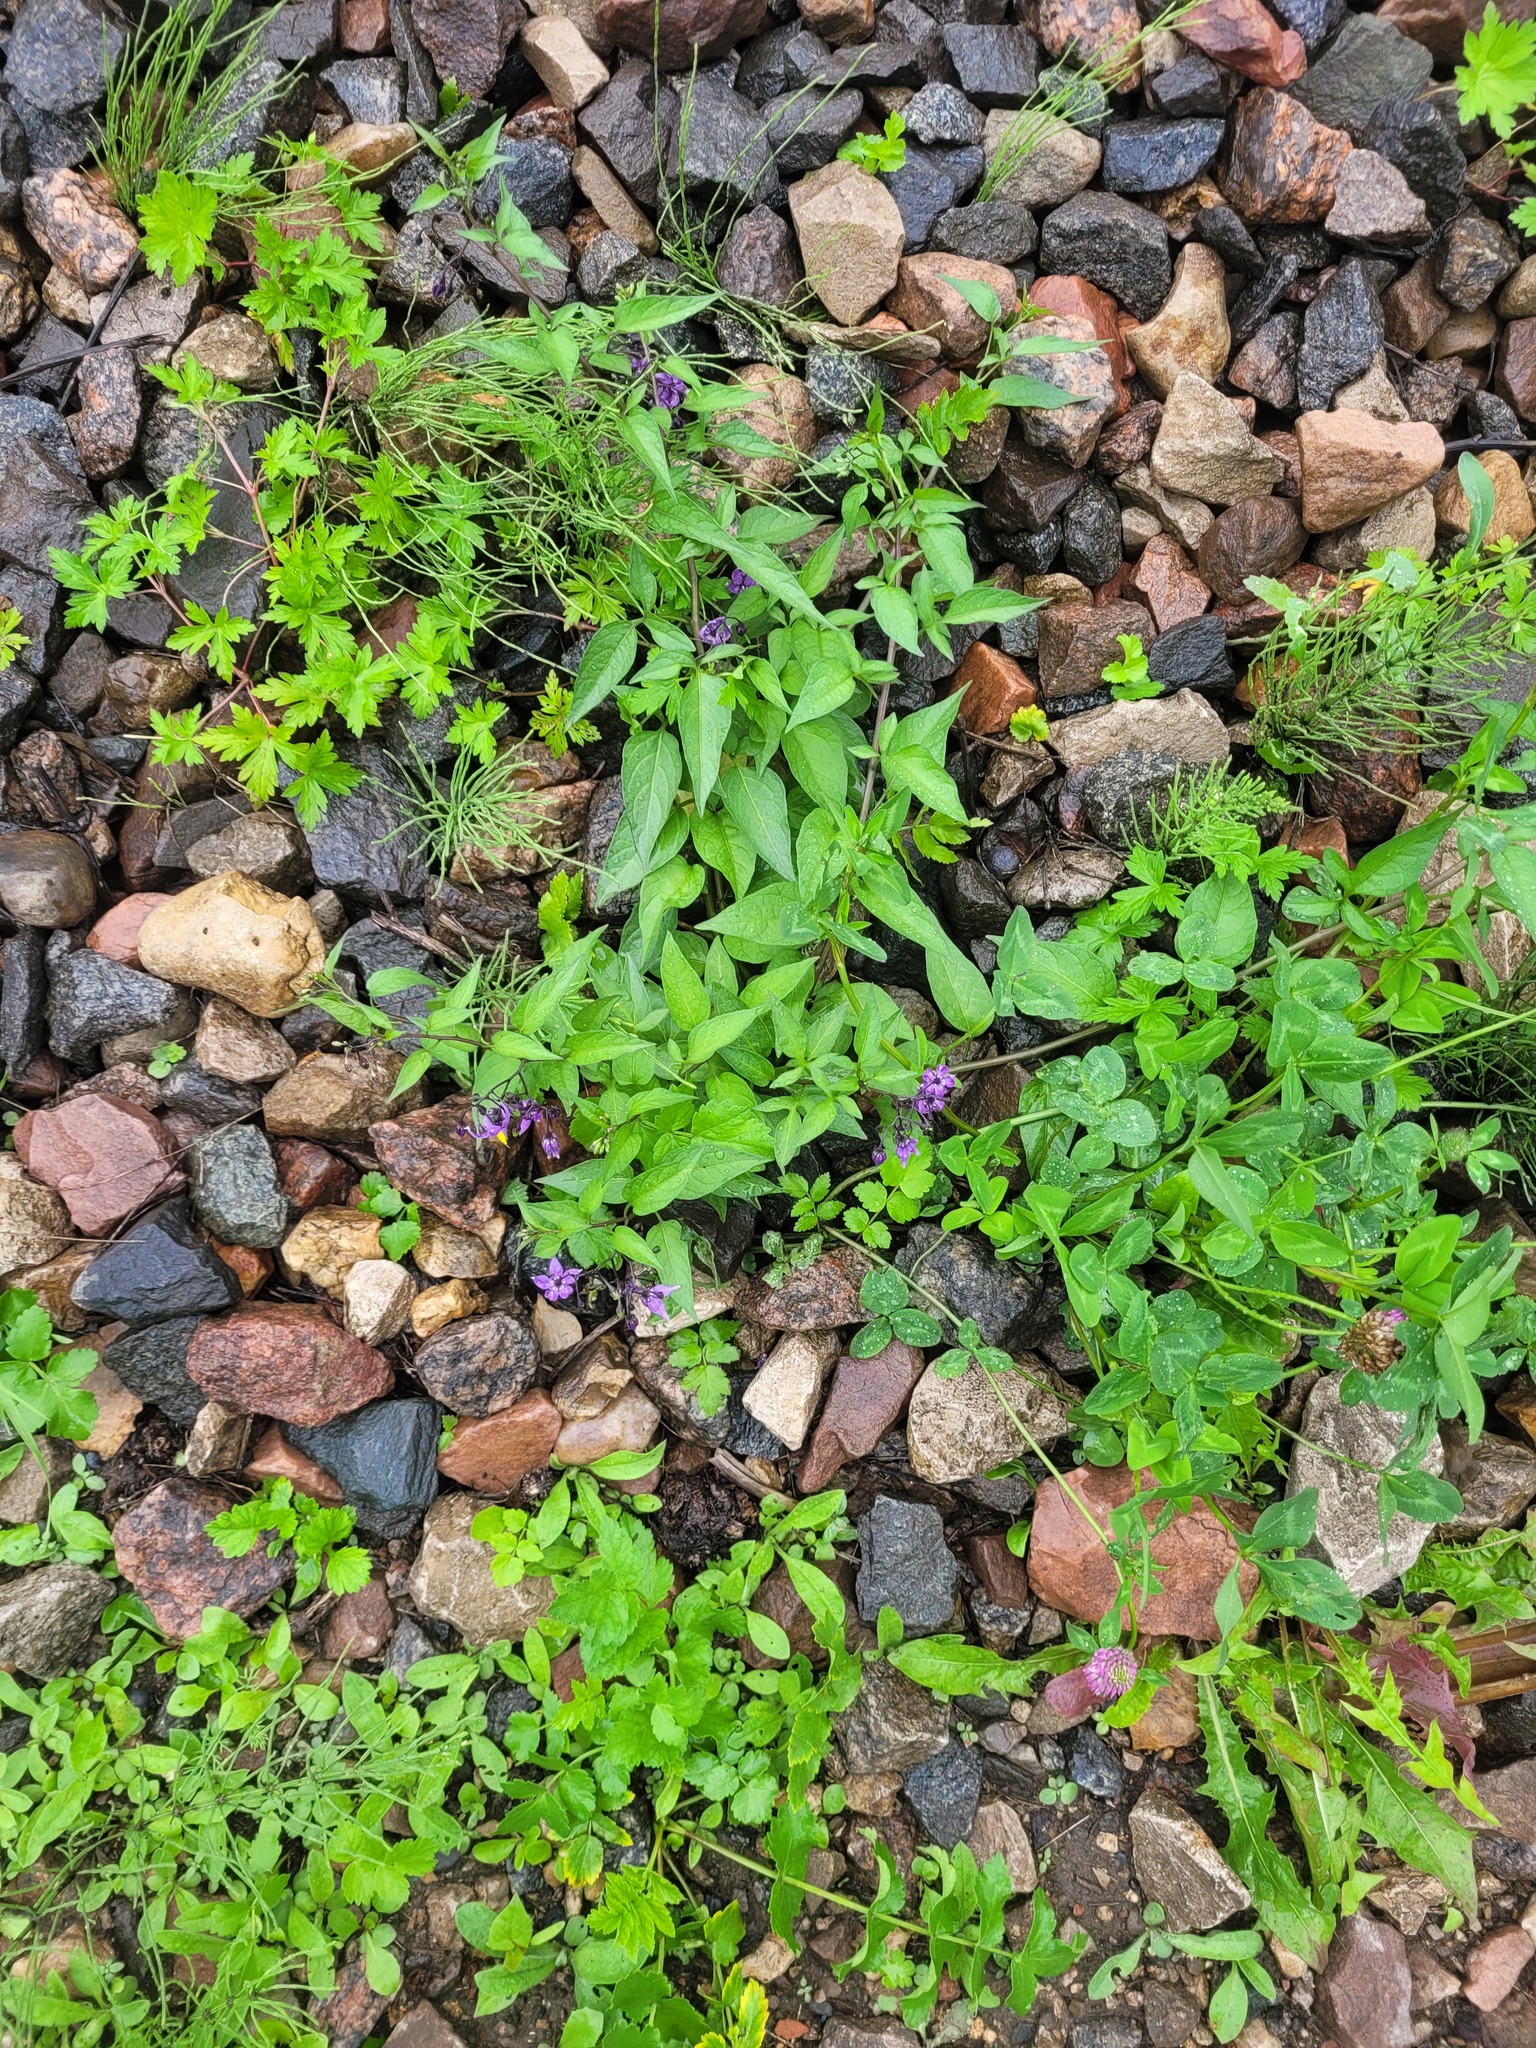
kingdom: Plantae
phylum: Tracheophyta
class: Magnoliopsida
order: Solanales
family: Solanaceae
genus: Solanum
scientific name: Solanum dulcamara
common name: Climbing nightshade
